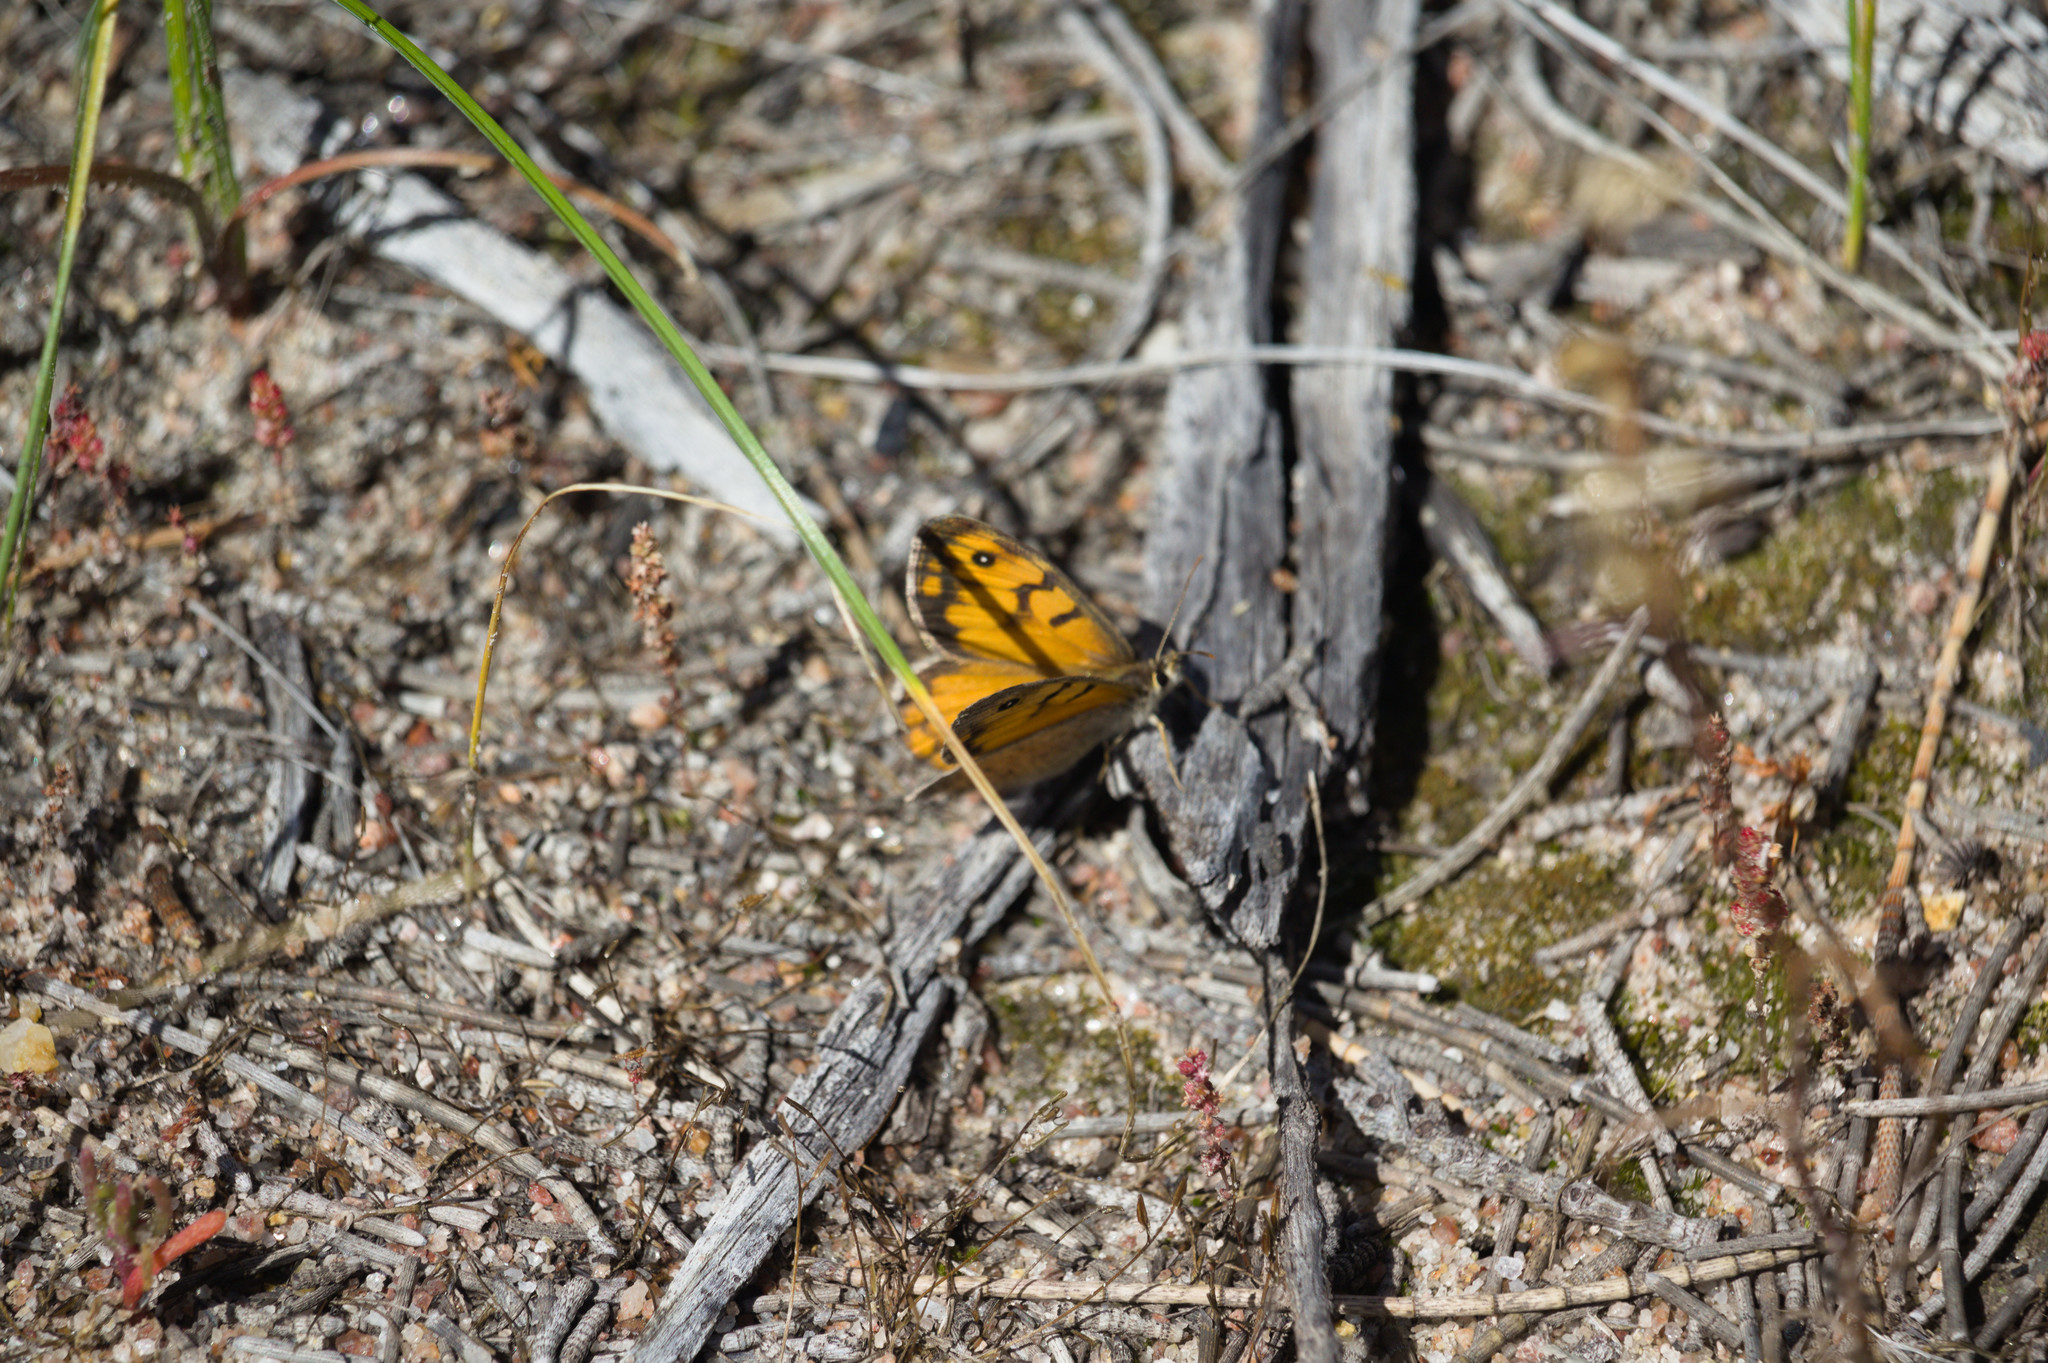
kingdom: Animalia
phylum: Arthropoda
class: Insecta
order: Lepidoptera
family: Nymphalidae
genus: Geitoneura
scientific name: Geitoneura minyas
